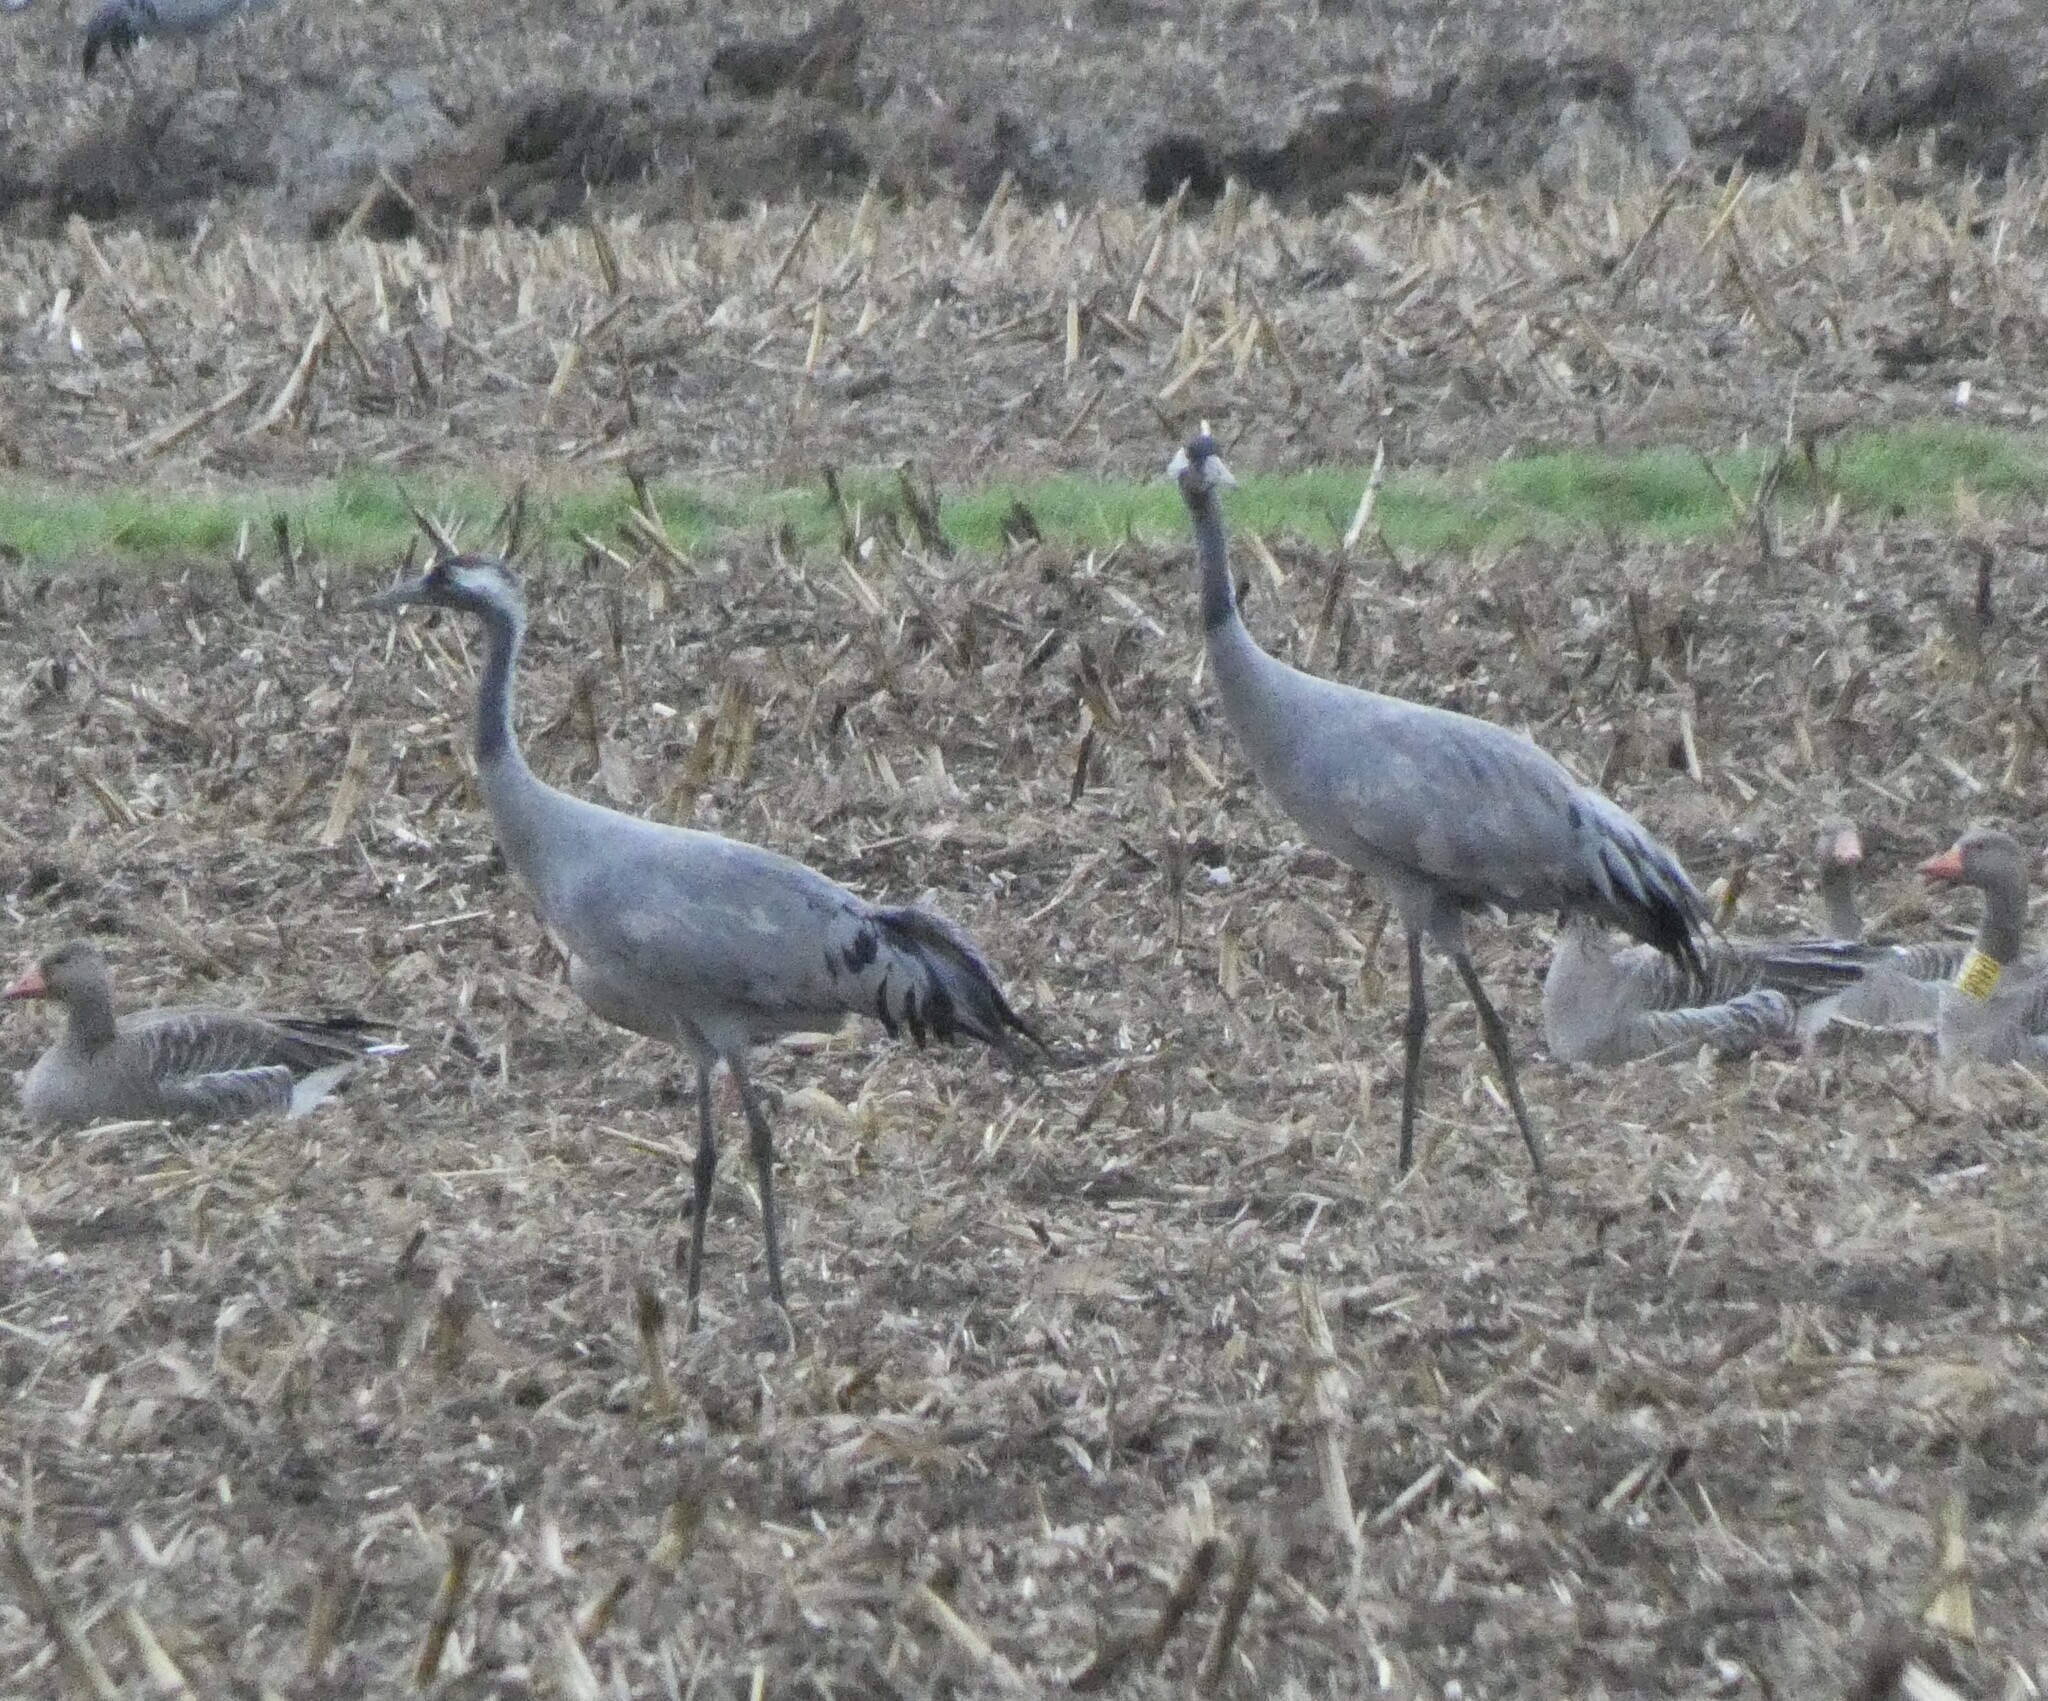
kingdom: Animalia
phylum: Chordata
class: Aves
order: Gruiformes
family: Gruidae
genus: Grus
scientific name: Grus grus
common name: Common crane
